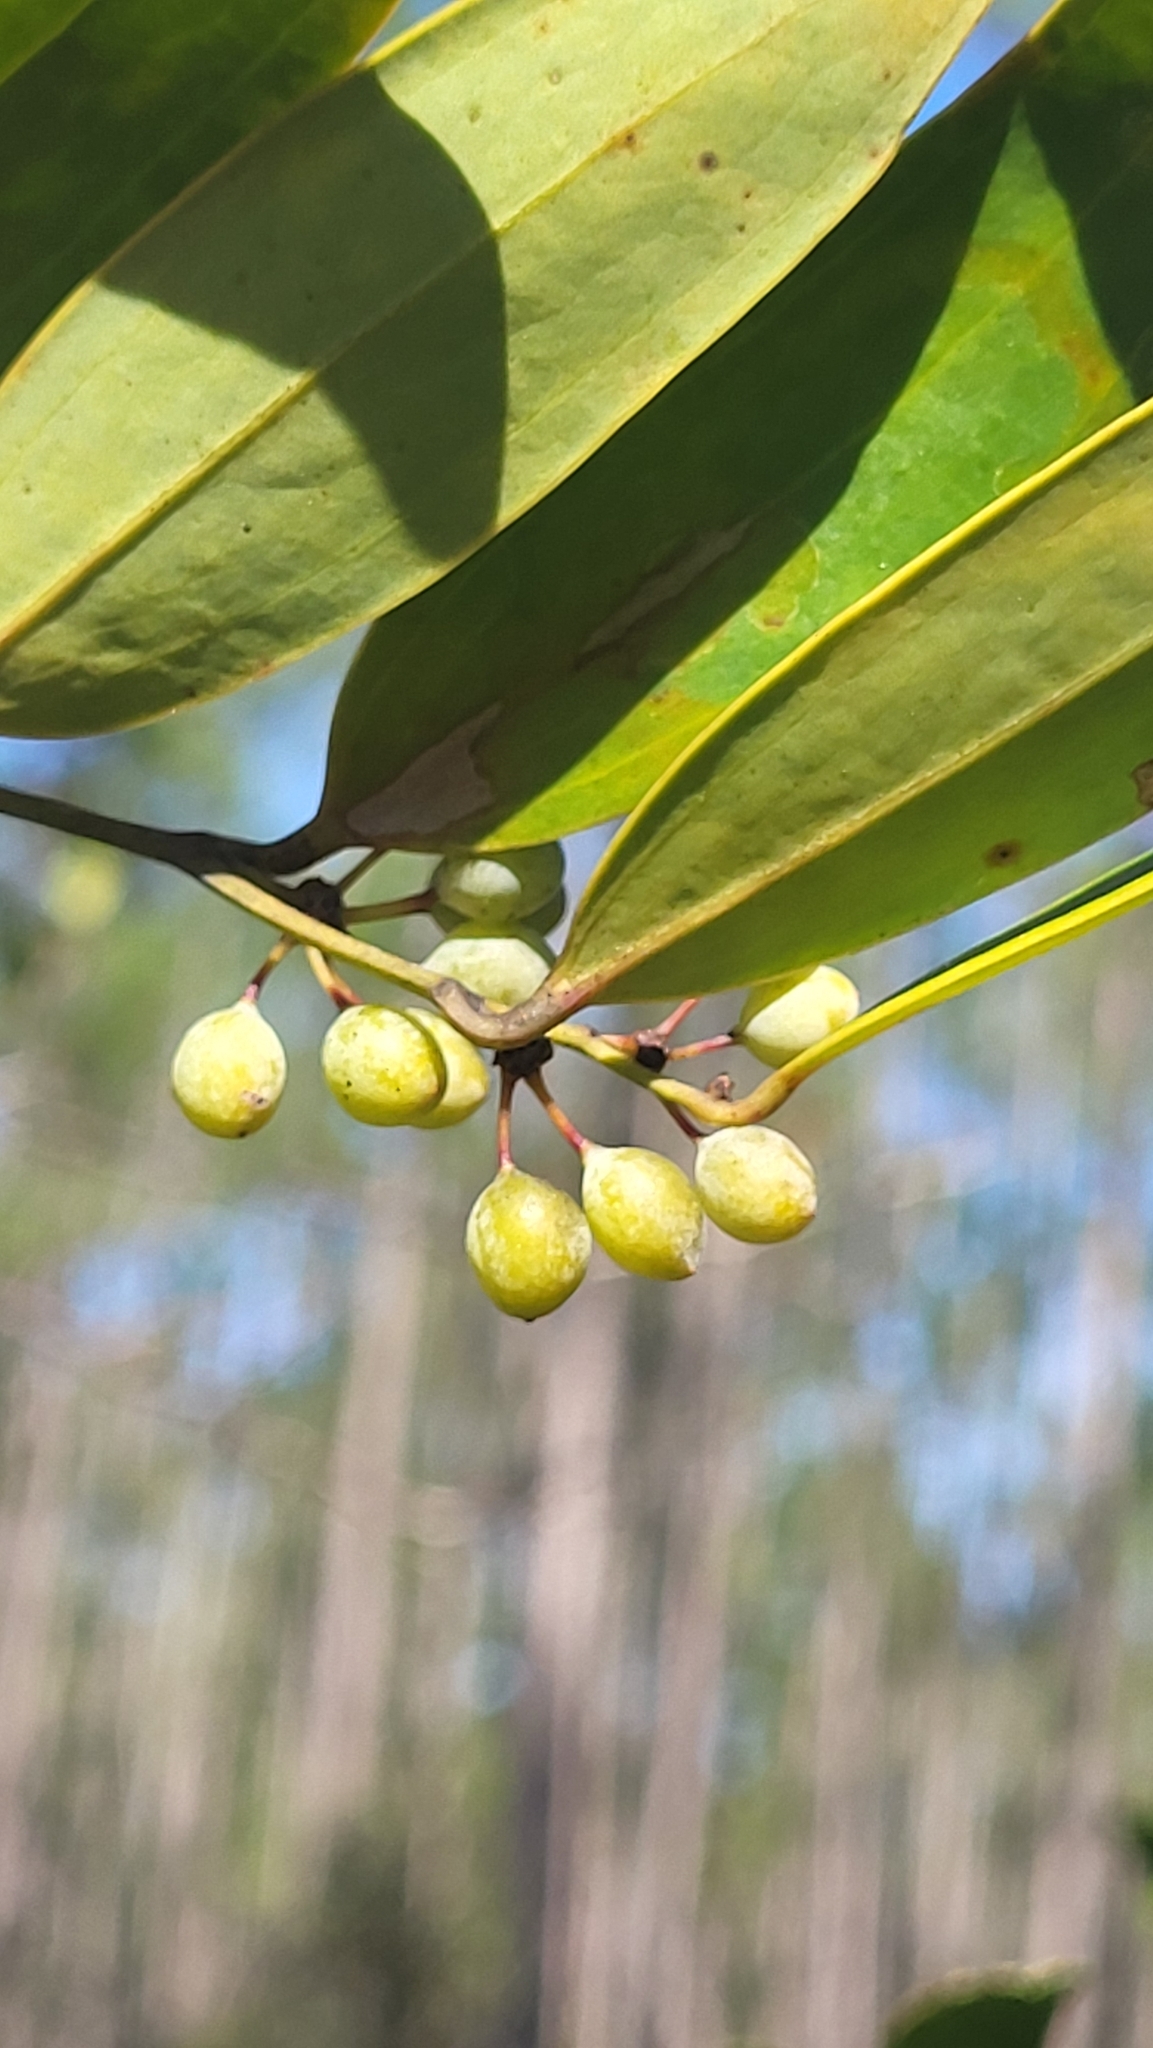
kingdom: Plantae
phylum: Tracheophyta
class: Liliopsida
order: Liliales
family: Smilacaceae
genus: Smilax
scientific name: Smilax laurifolia
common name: Bamboovine
